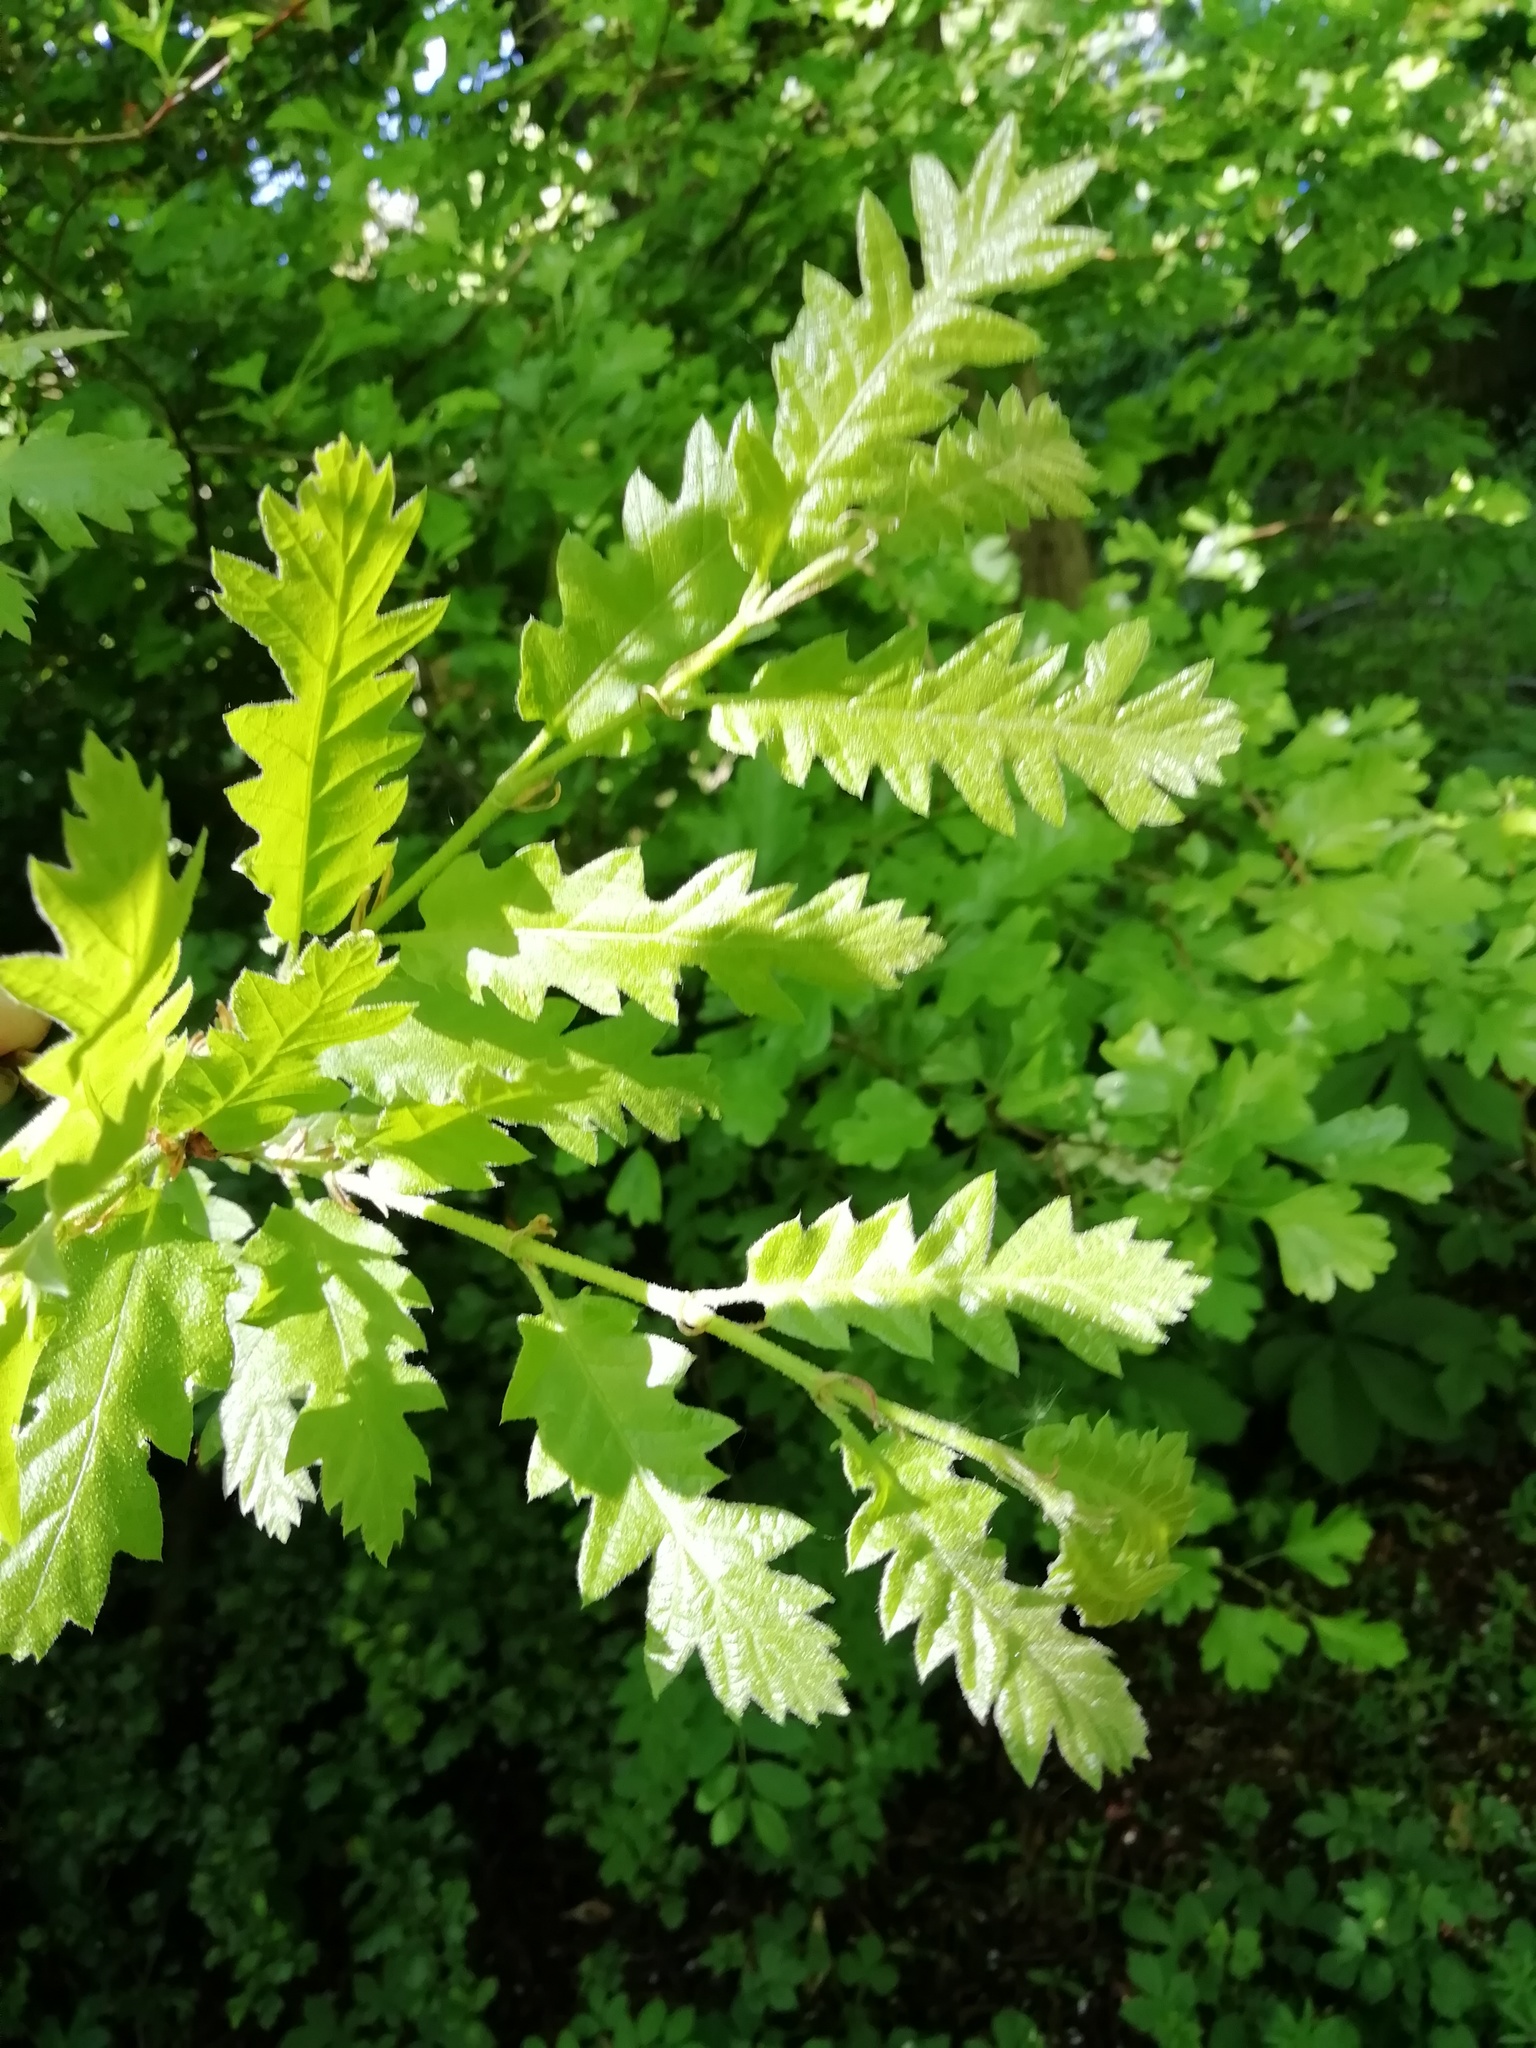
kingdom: Plantae
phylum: Tracheophyta
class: Magnoliopsida
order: Fagales
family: Fagaceae
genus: Quercus
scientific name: Quercus cerris
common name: Turkey oak
